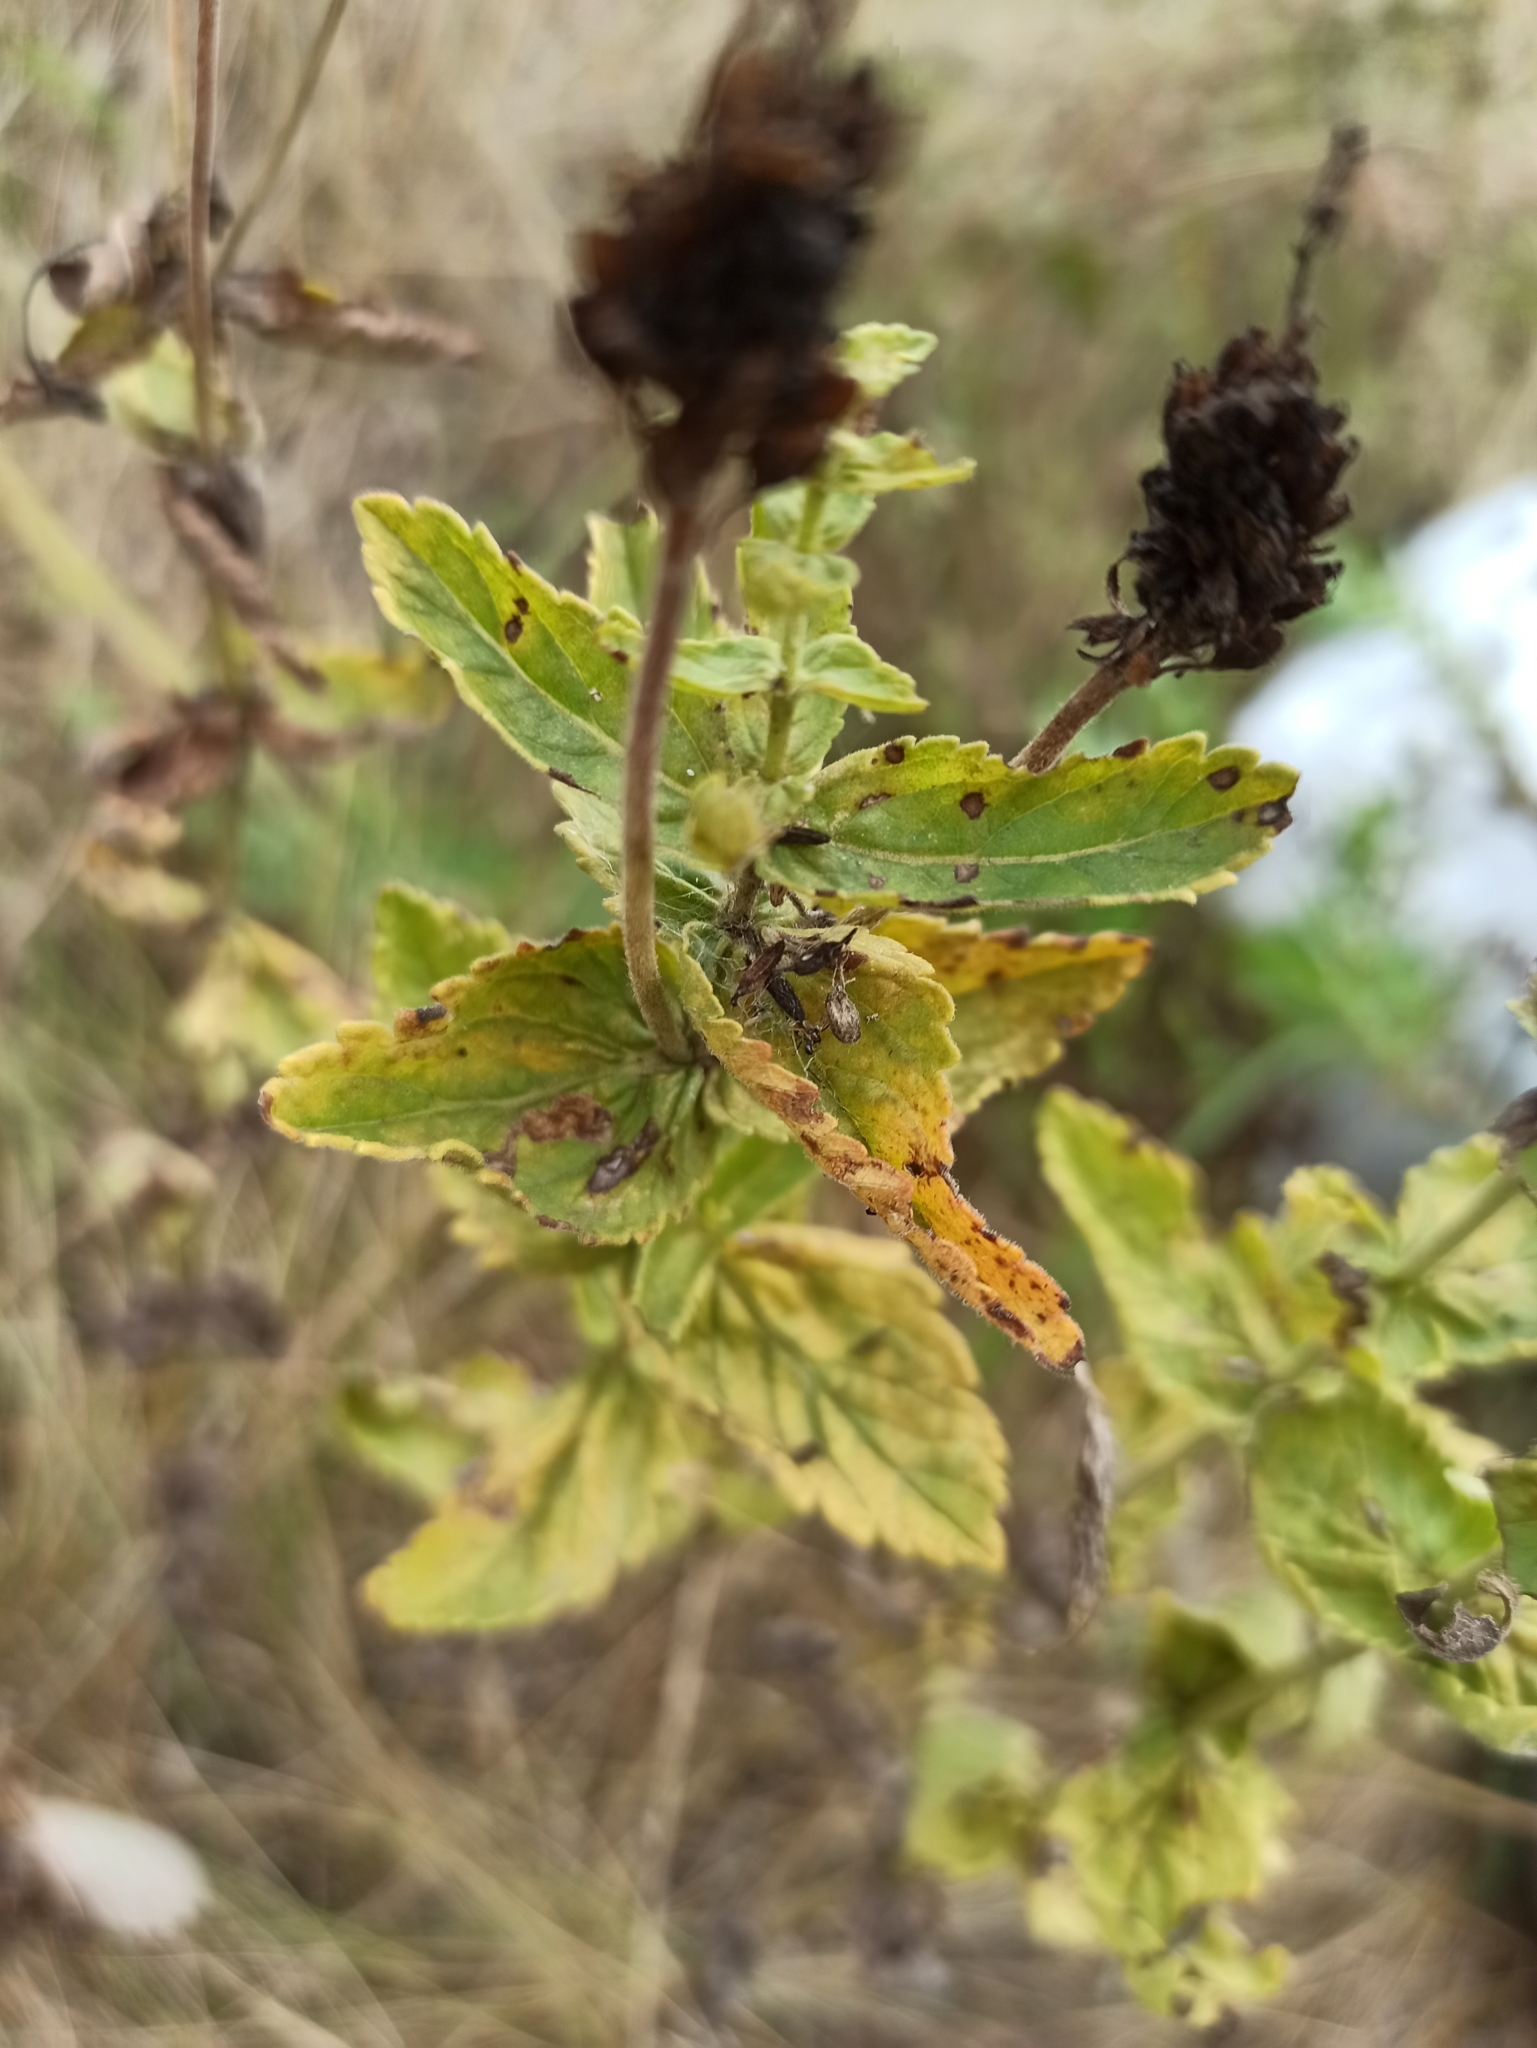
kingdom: Plantae
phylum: Tracheophyta
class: Magnoliopsida
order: Lamiales
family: Plantaginaceae
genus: Veronica
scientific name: Veronica teucrium
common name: Large speedwell
